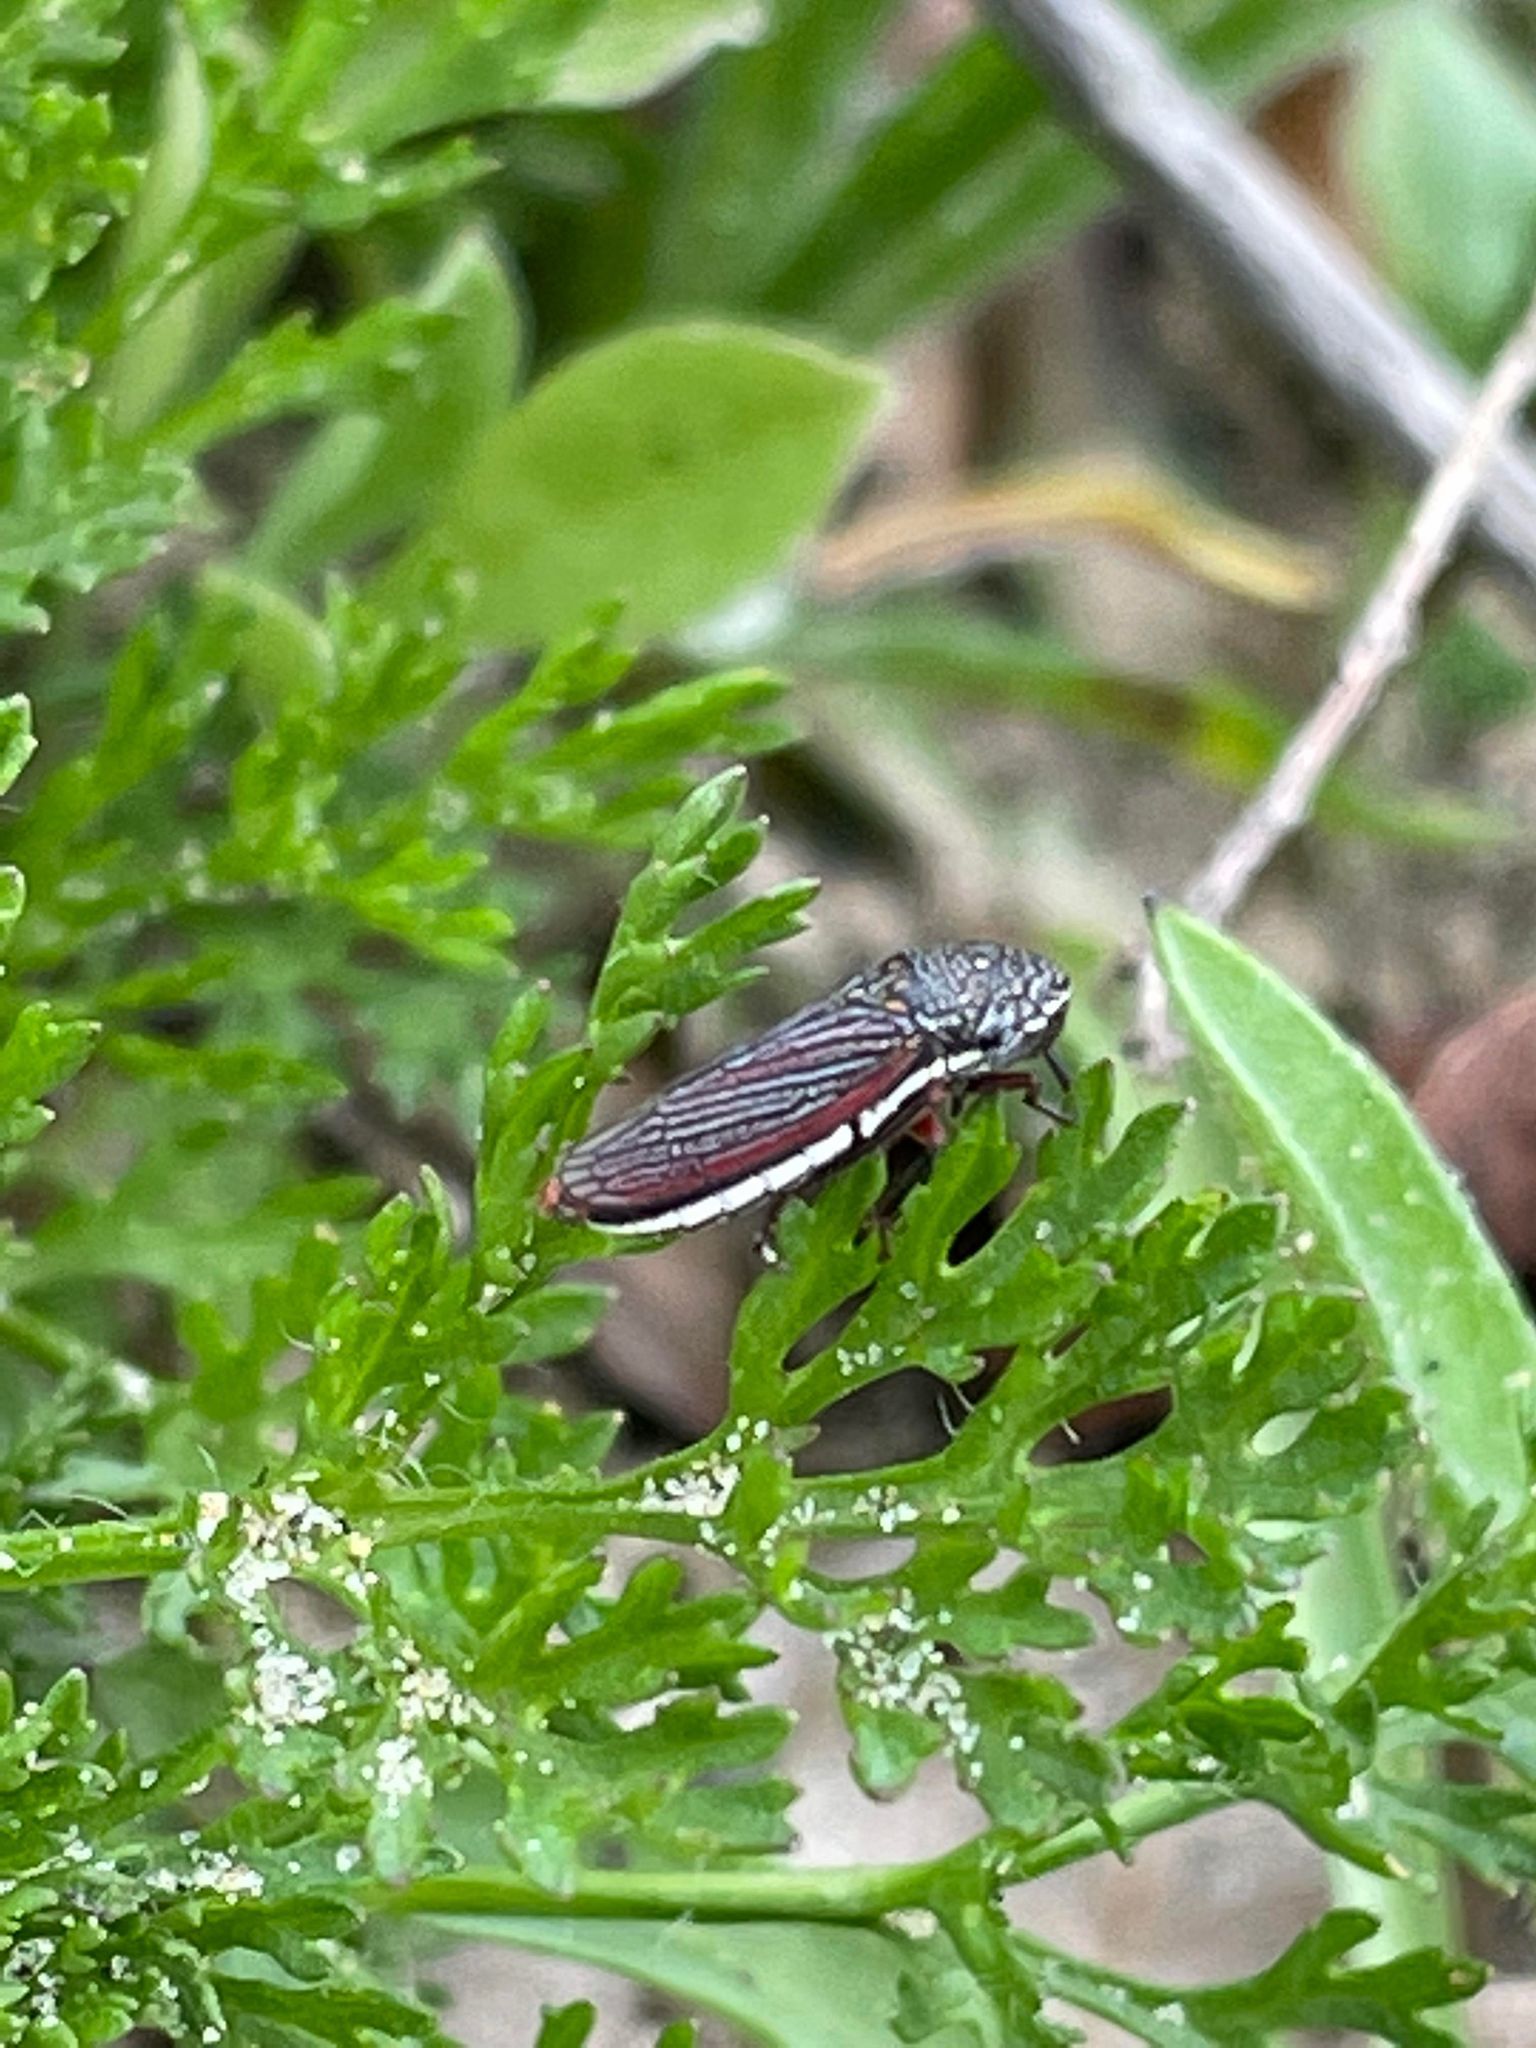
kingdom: Animalia
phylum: Arthropoda
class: Insecta
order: Hemiptera
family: Cicadellidae
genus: Cuerna
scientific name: Cuerna costalis
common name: Lateral-lined sharpshooter
